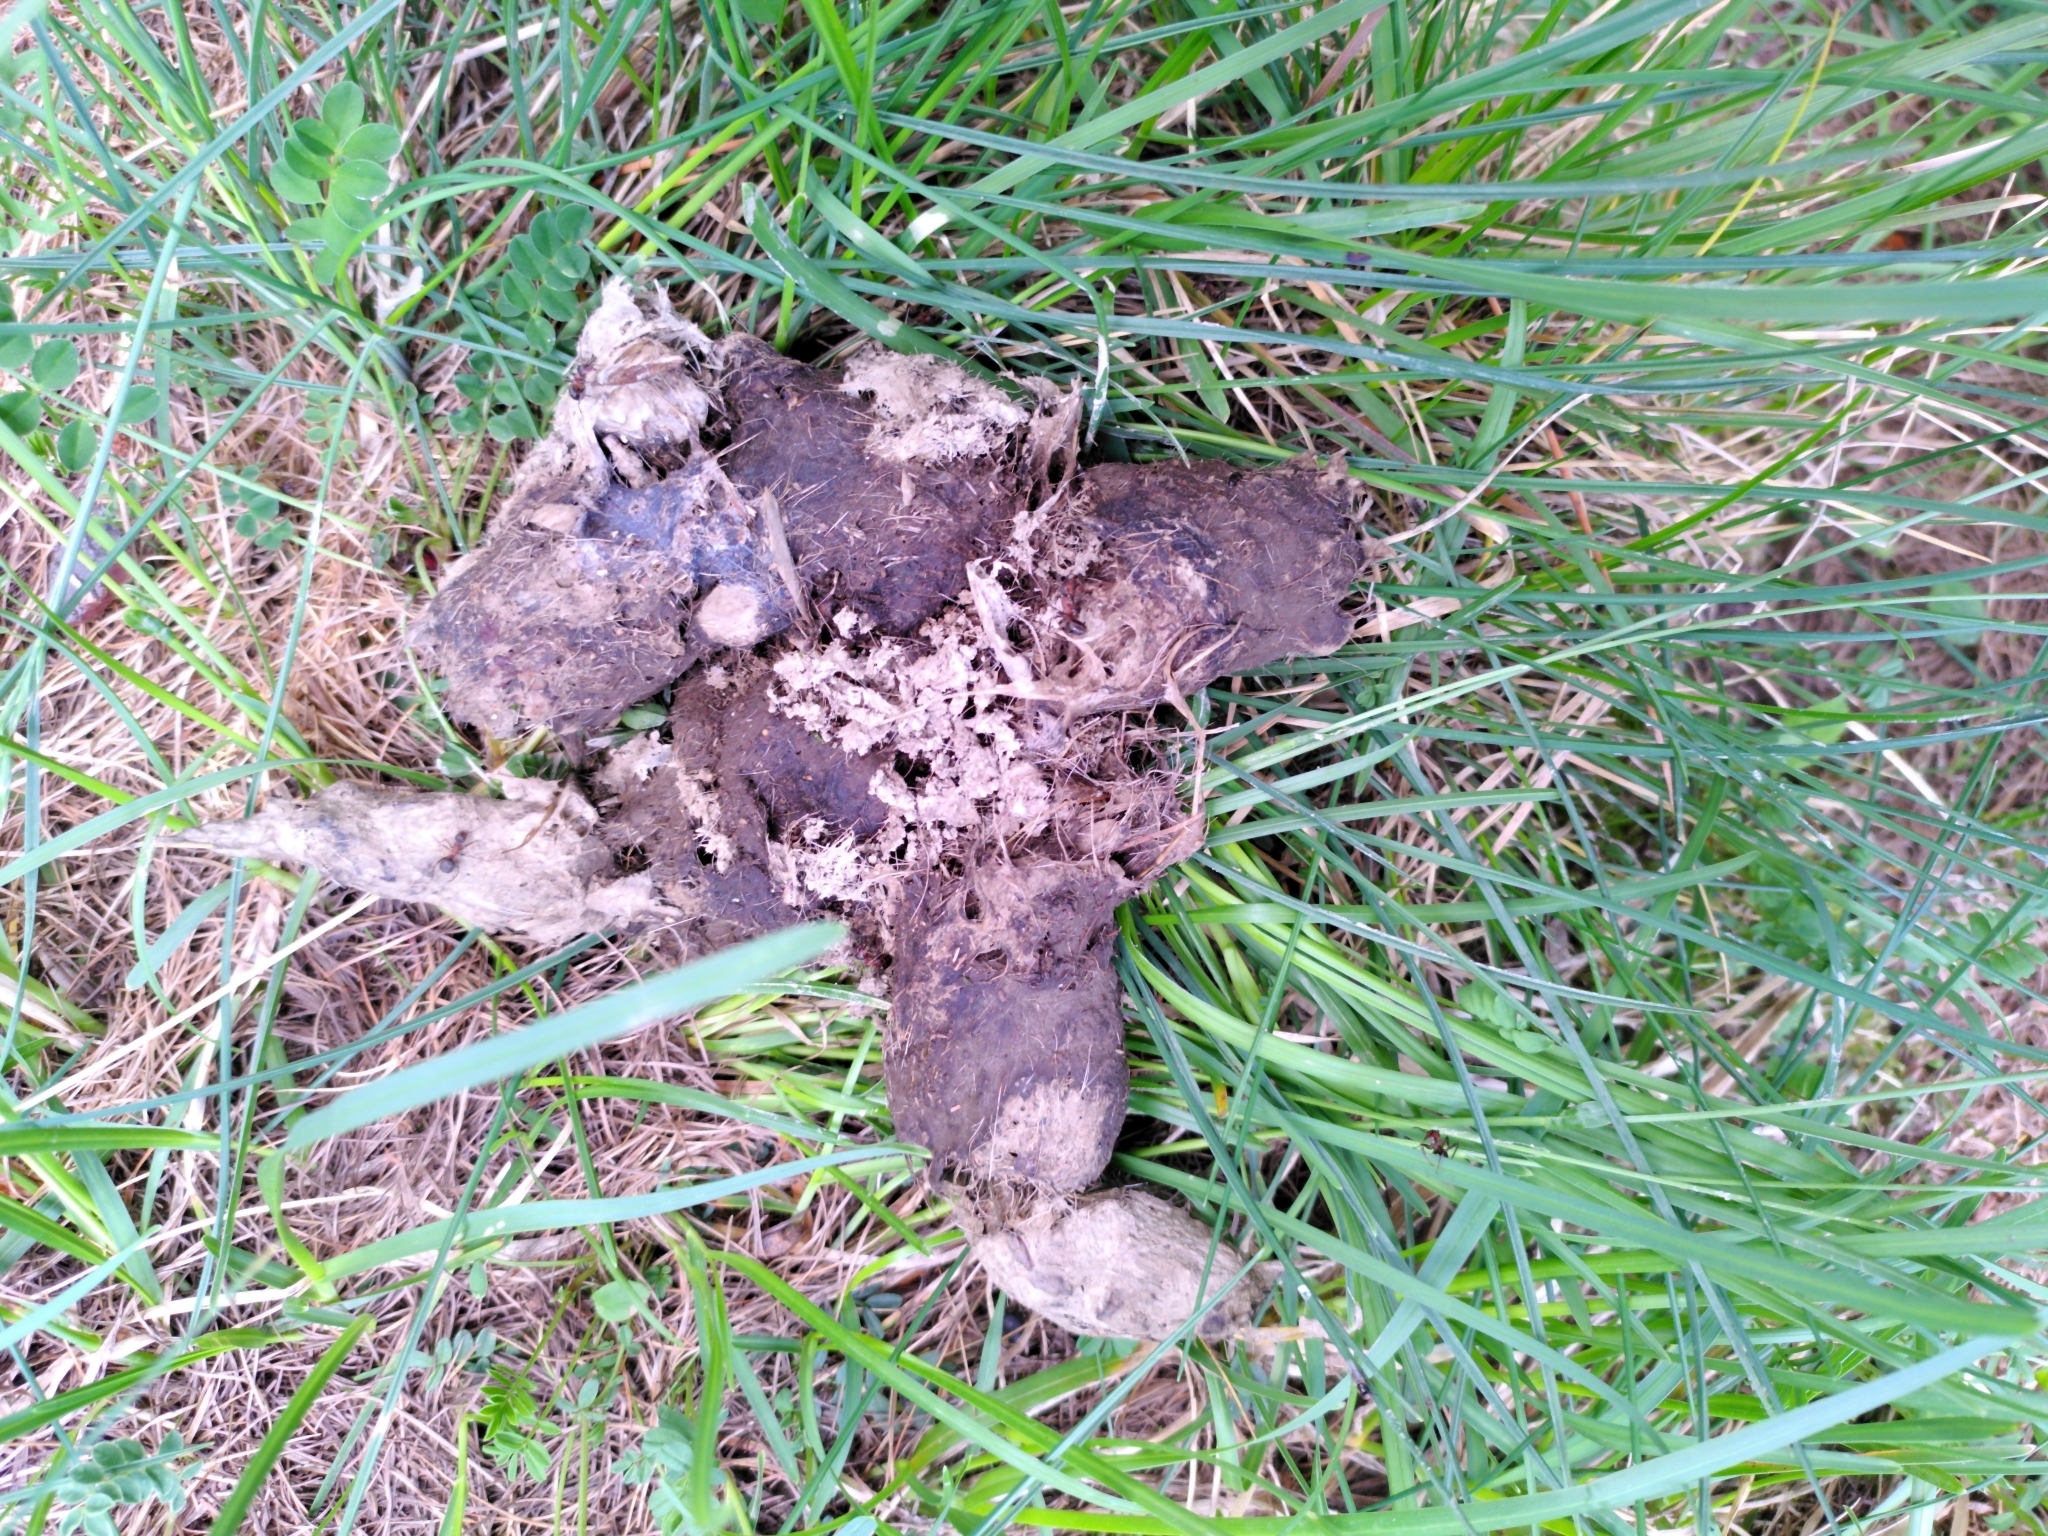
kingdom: Animalia
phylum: Chordata
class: Mammalia
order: Carnivora
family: Canidae
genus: Canis
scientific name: Canis lupus
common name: Gray wolf
